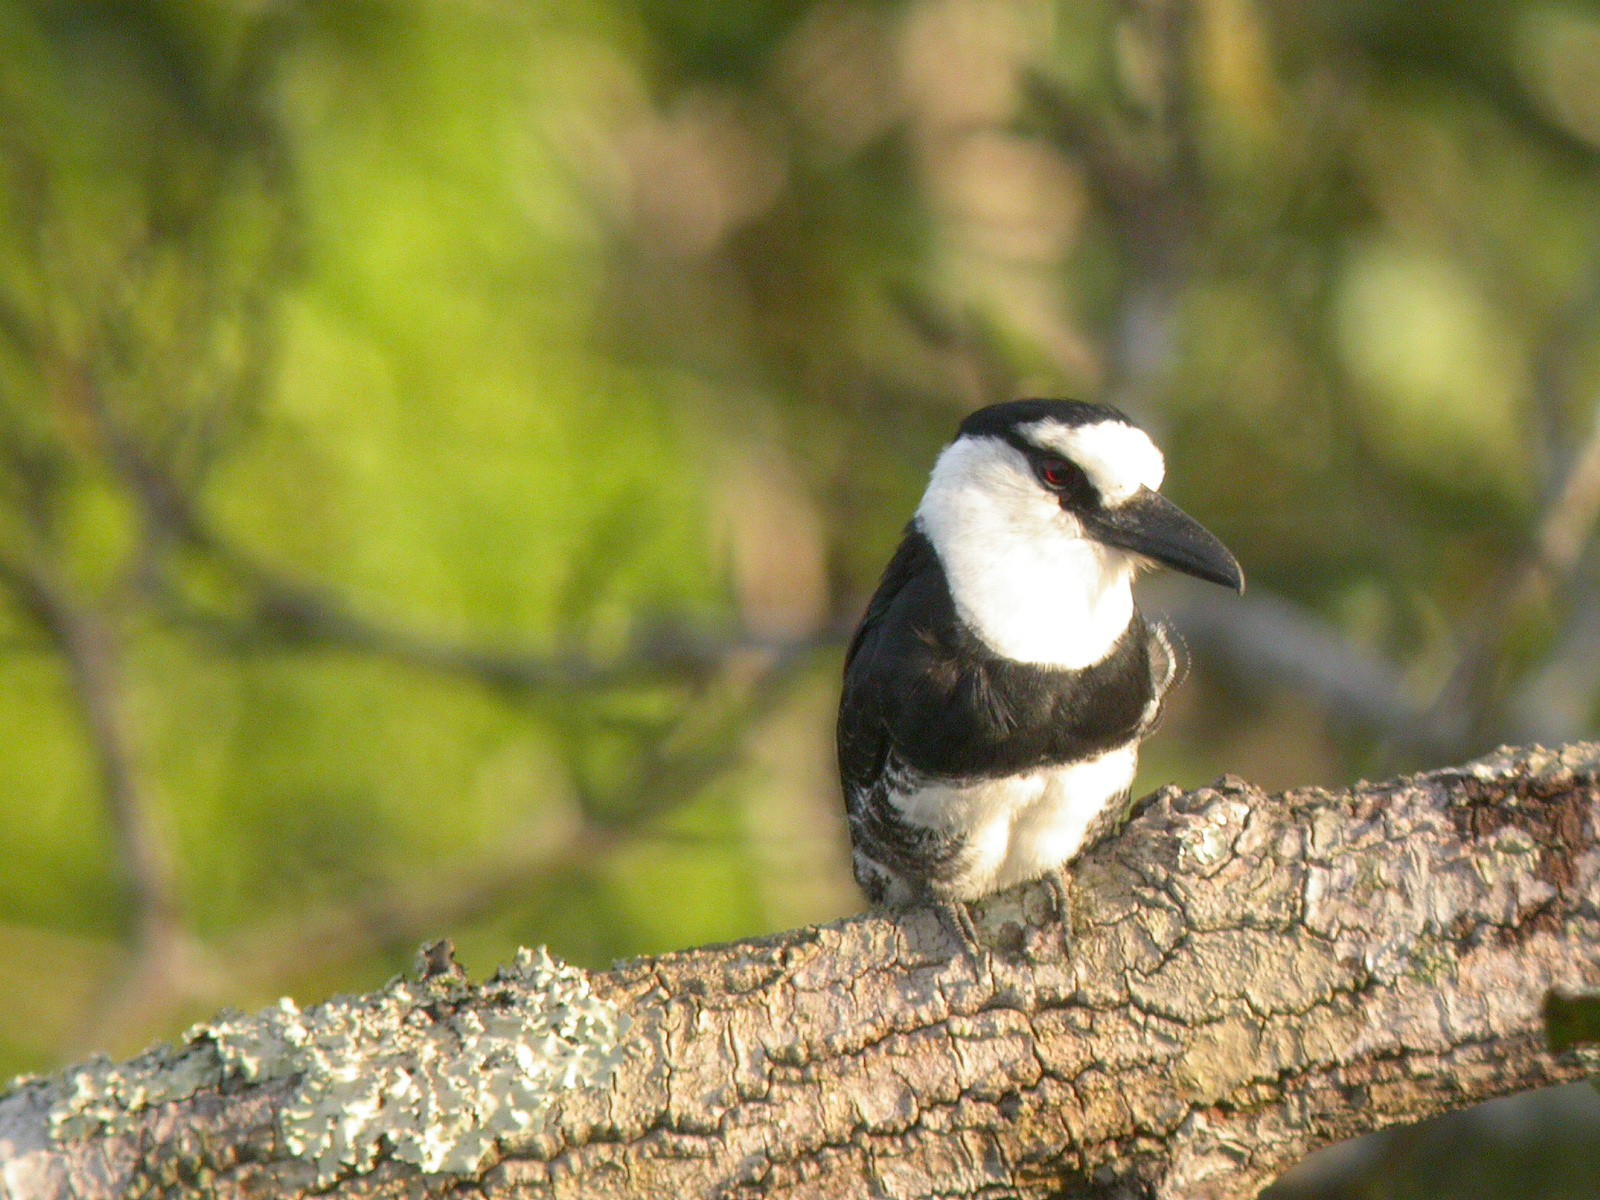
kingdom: Animalia
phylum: Chordata
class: Aves
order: Piciformes
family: Bucconidae
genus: Notharchus
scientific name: Notharchus hyperrhynchus
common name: White-necked puffbird
